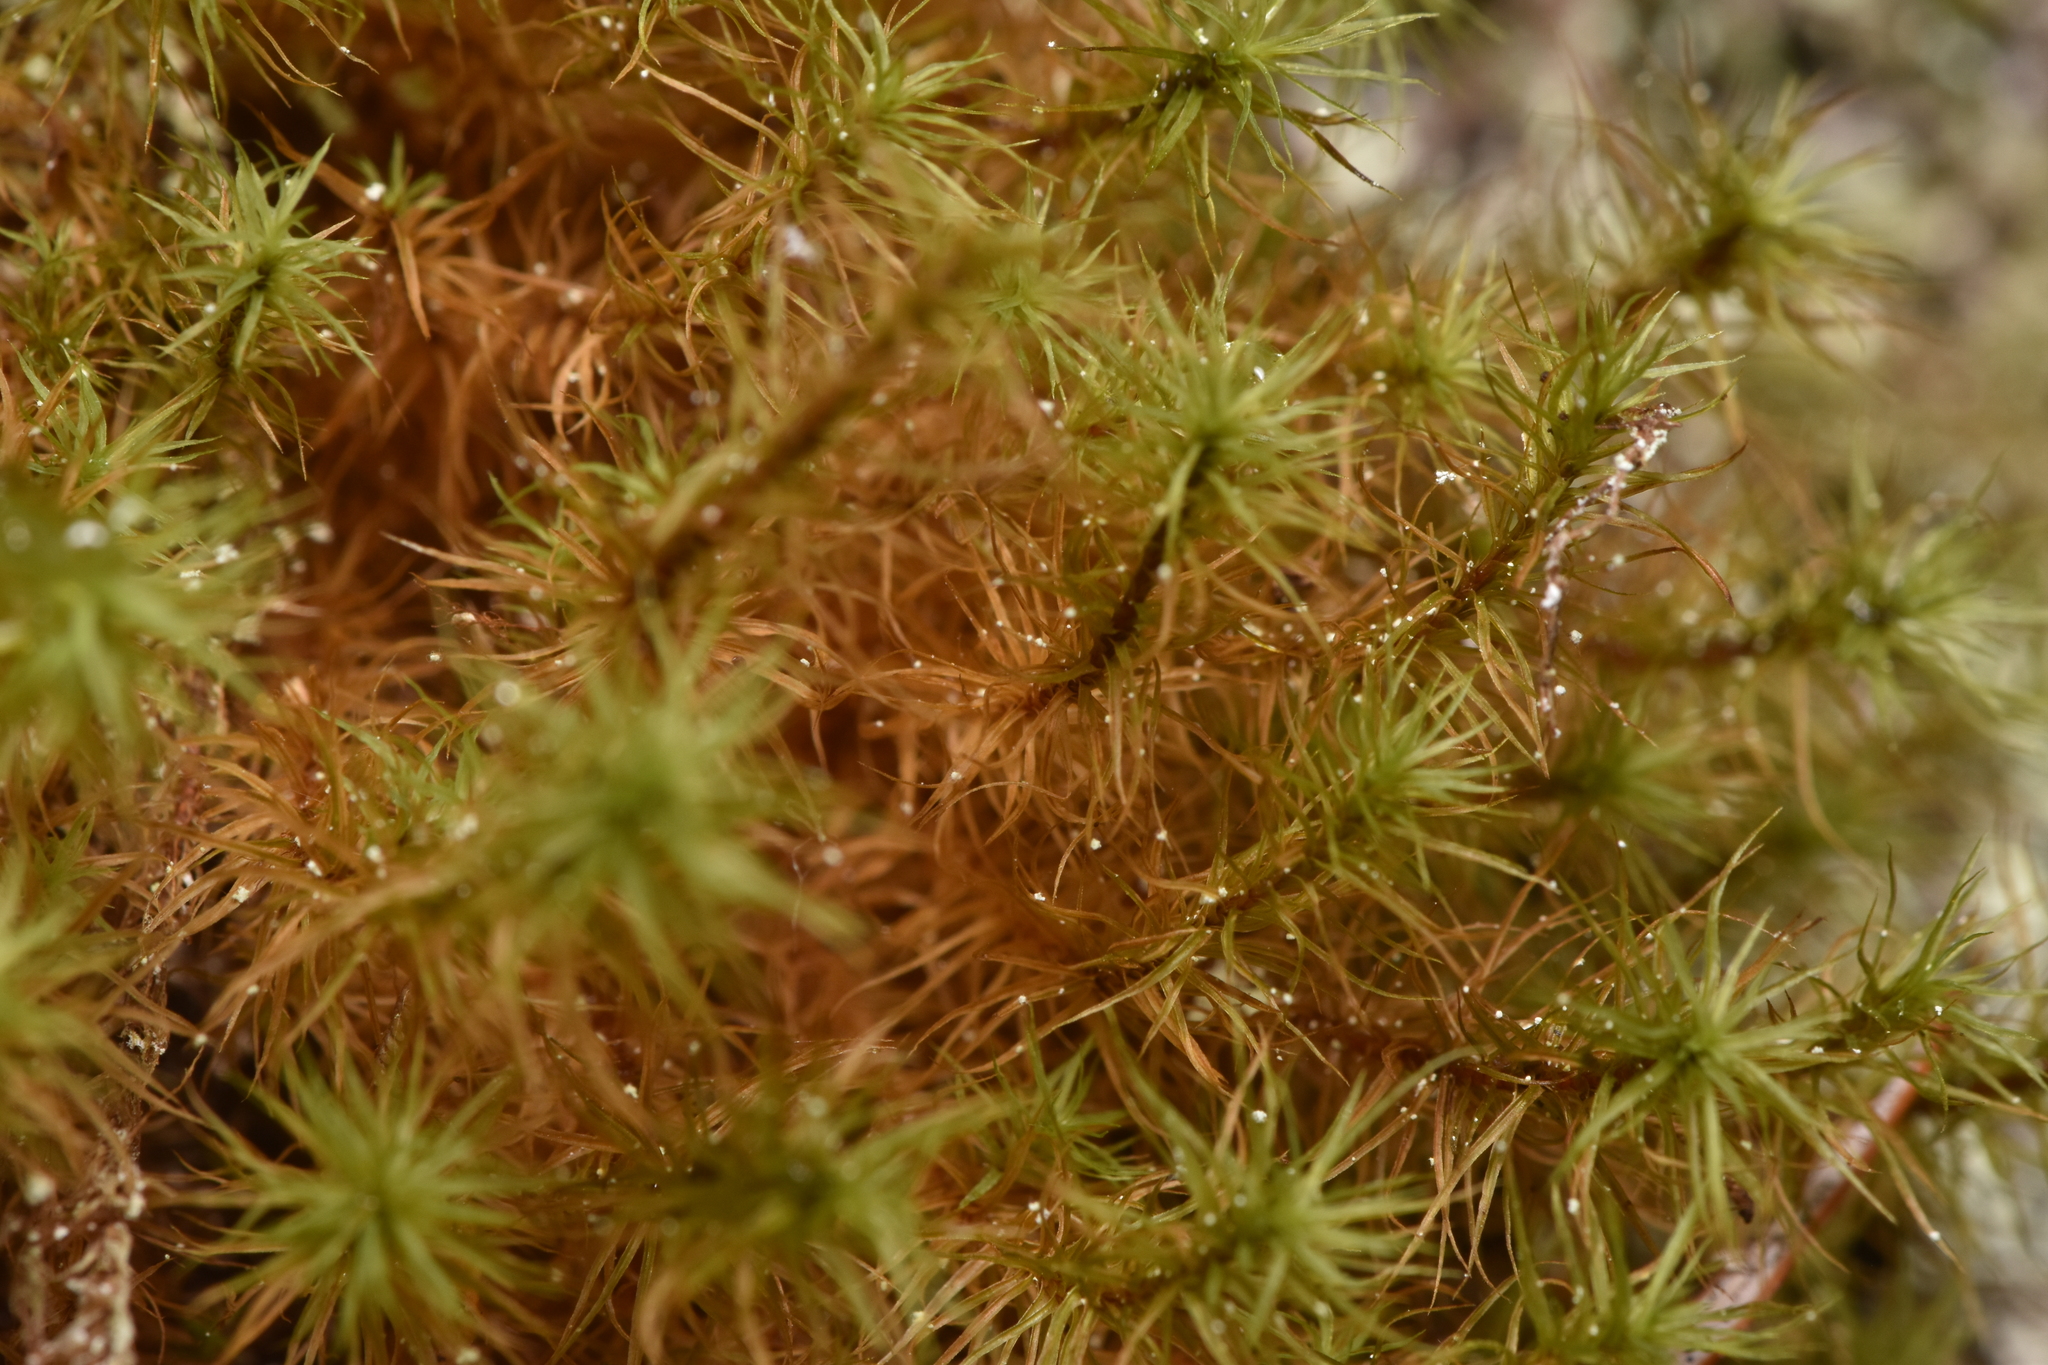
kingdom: Plantae
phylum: Bryophyta
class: Bryopsida
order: Bartramiales
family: Bartramiaceae
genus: Bartramia
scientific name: Bartramia ithyphylla
